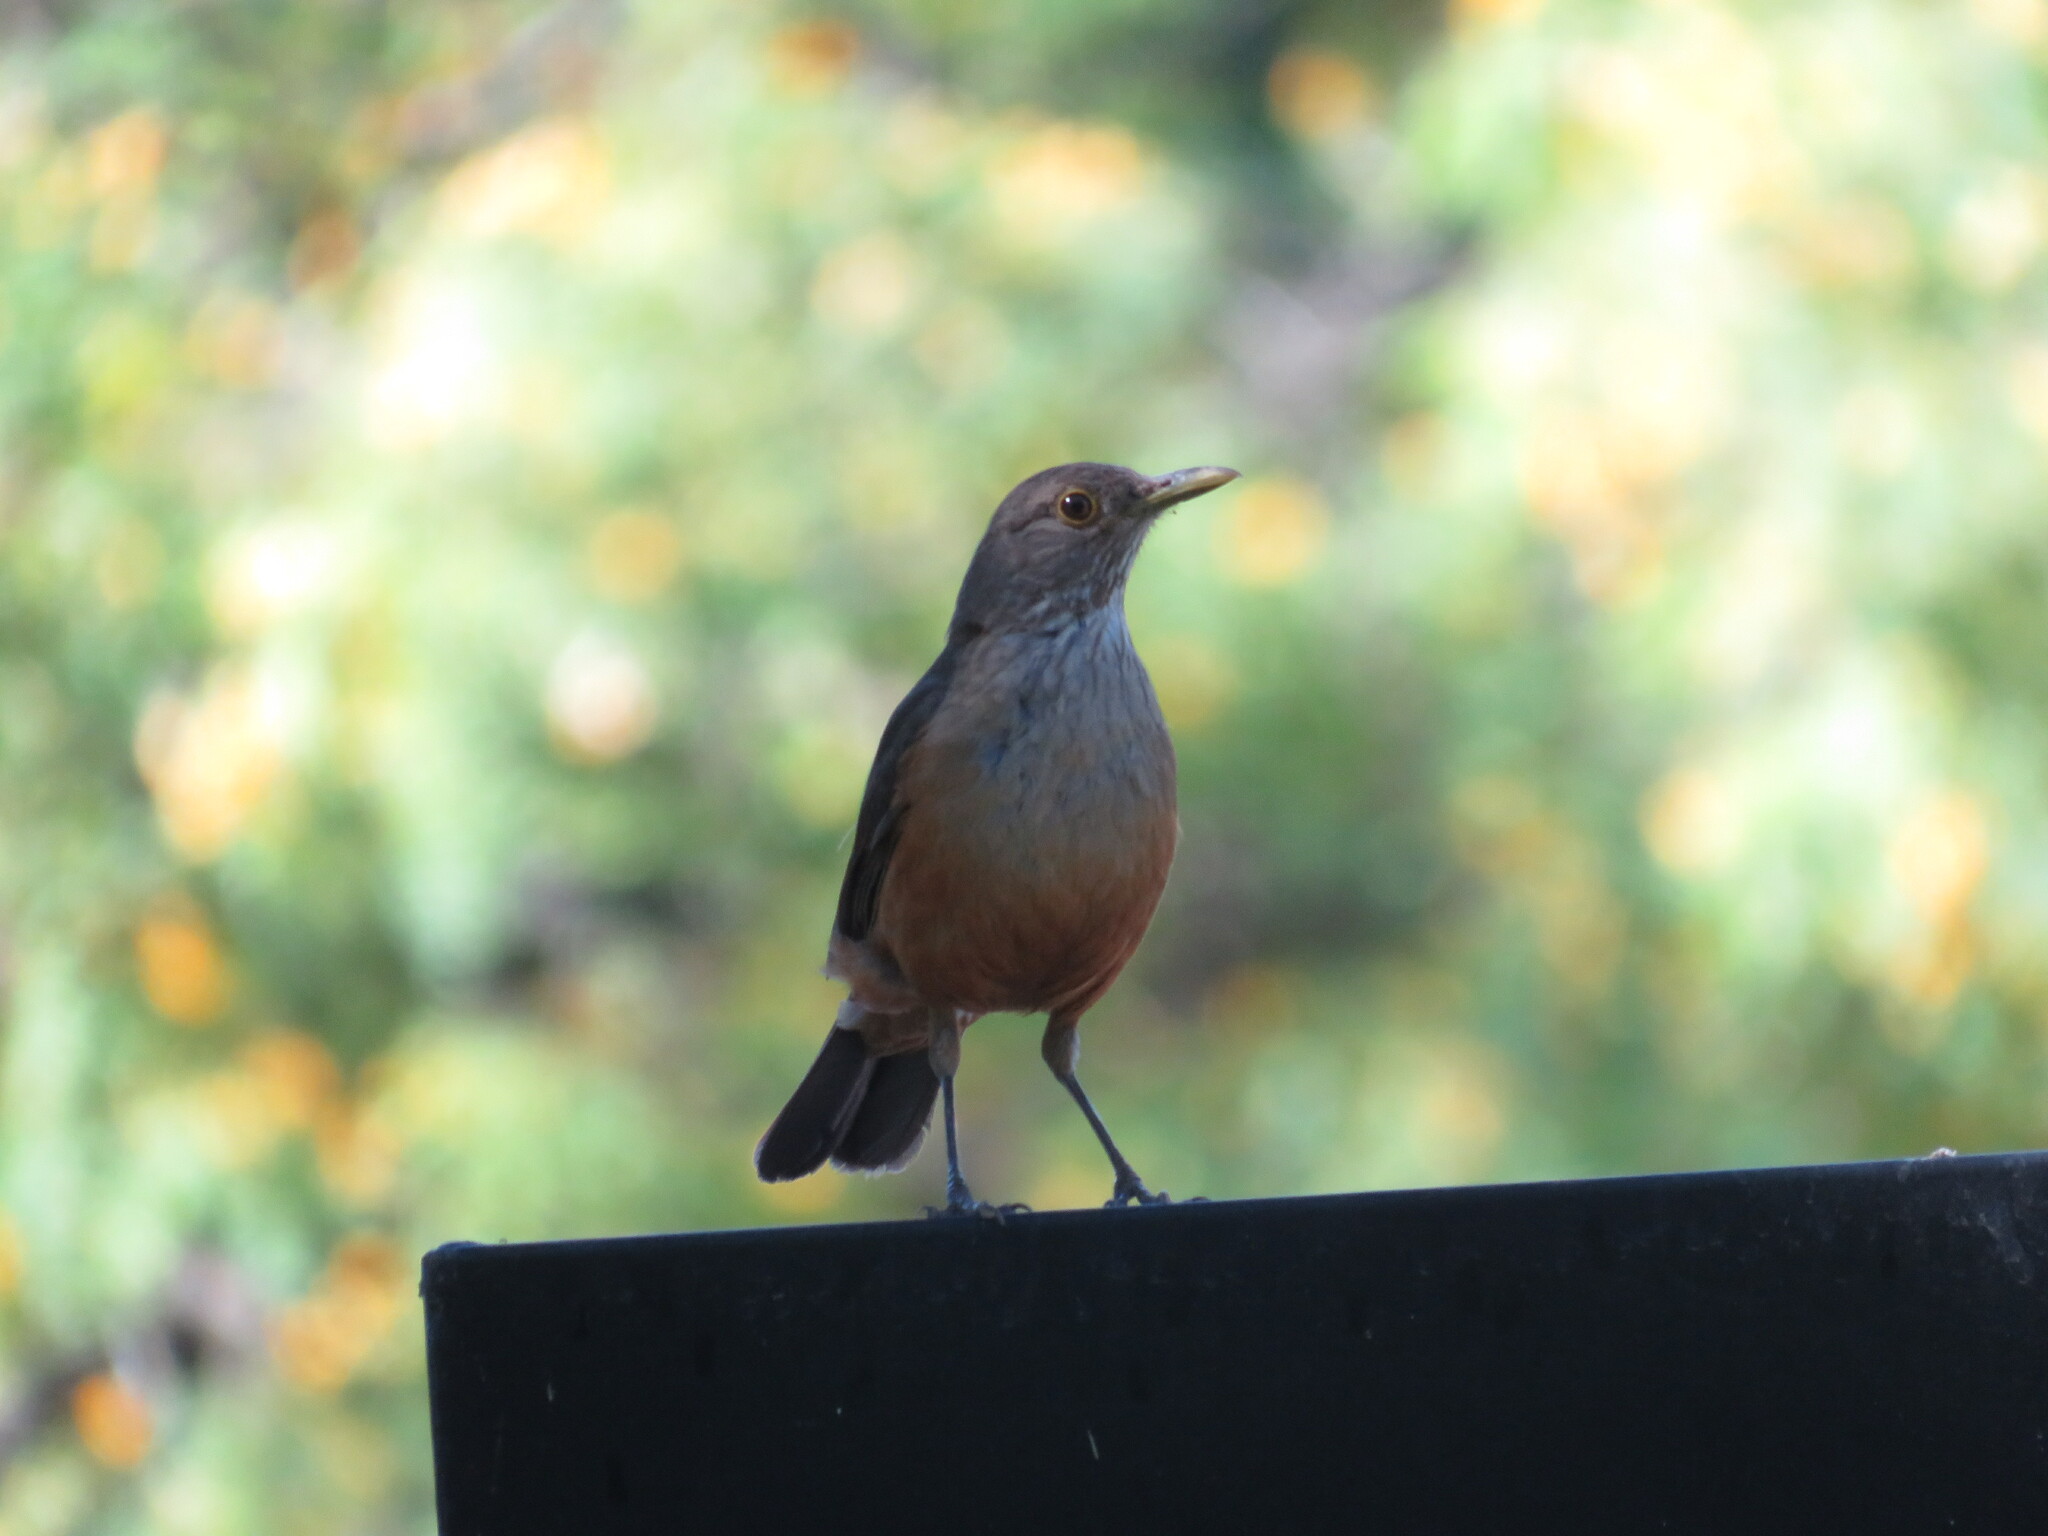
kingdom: Animalia
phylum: Chordata
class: Aves
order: Passeriformes
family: Turdidae
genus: Turdus
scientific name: Turdus rufiventris
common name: Rufous-bellied thrush
